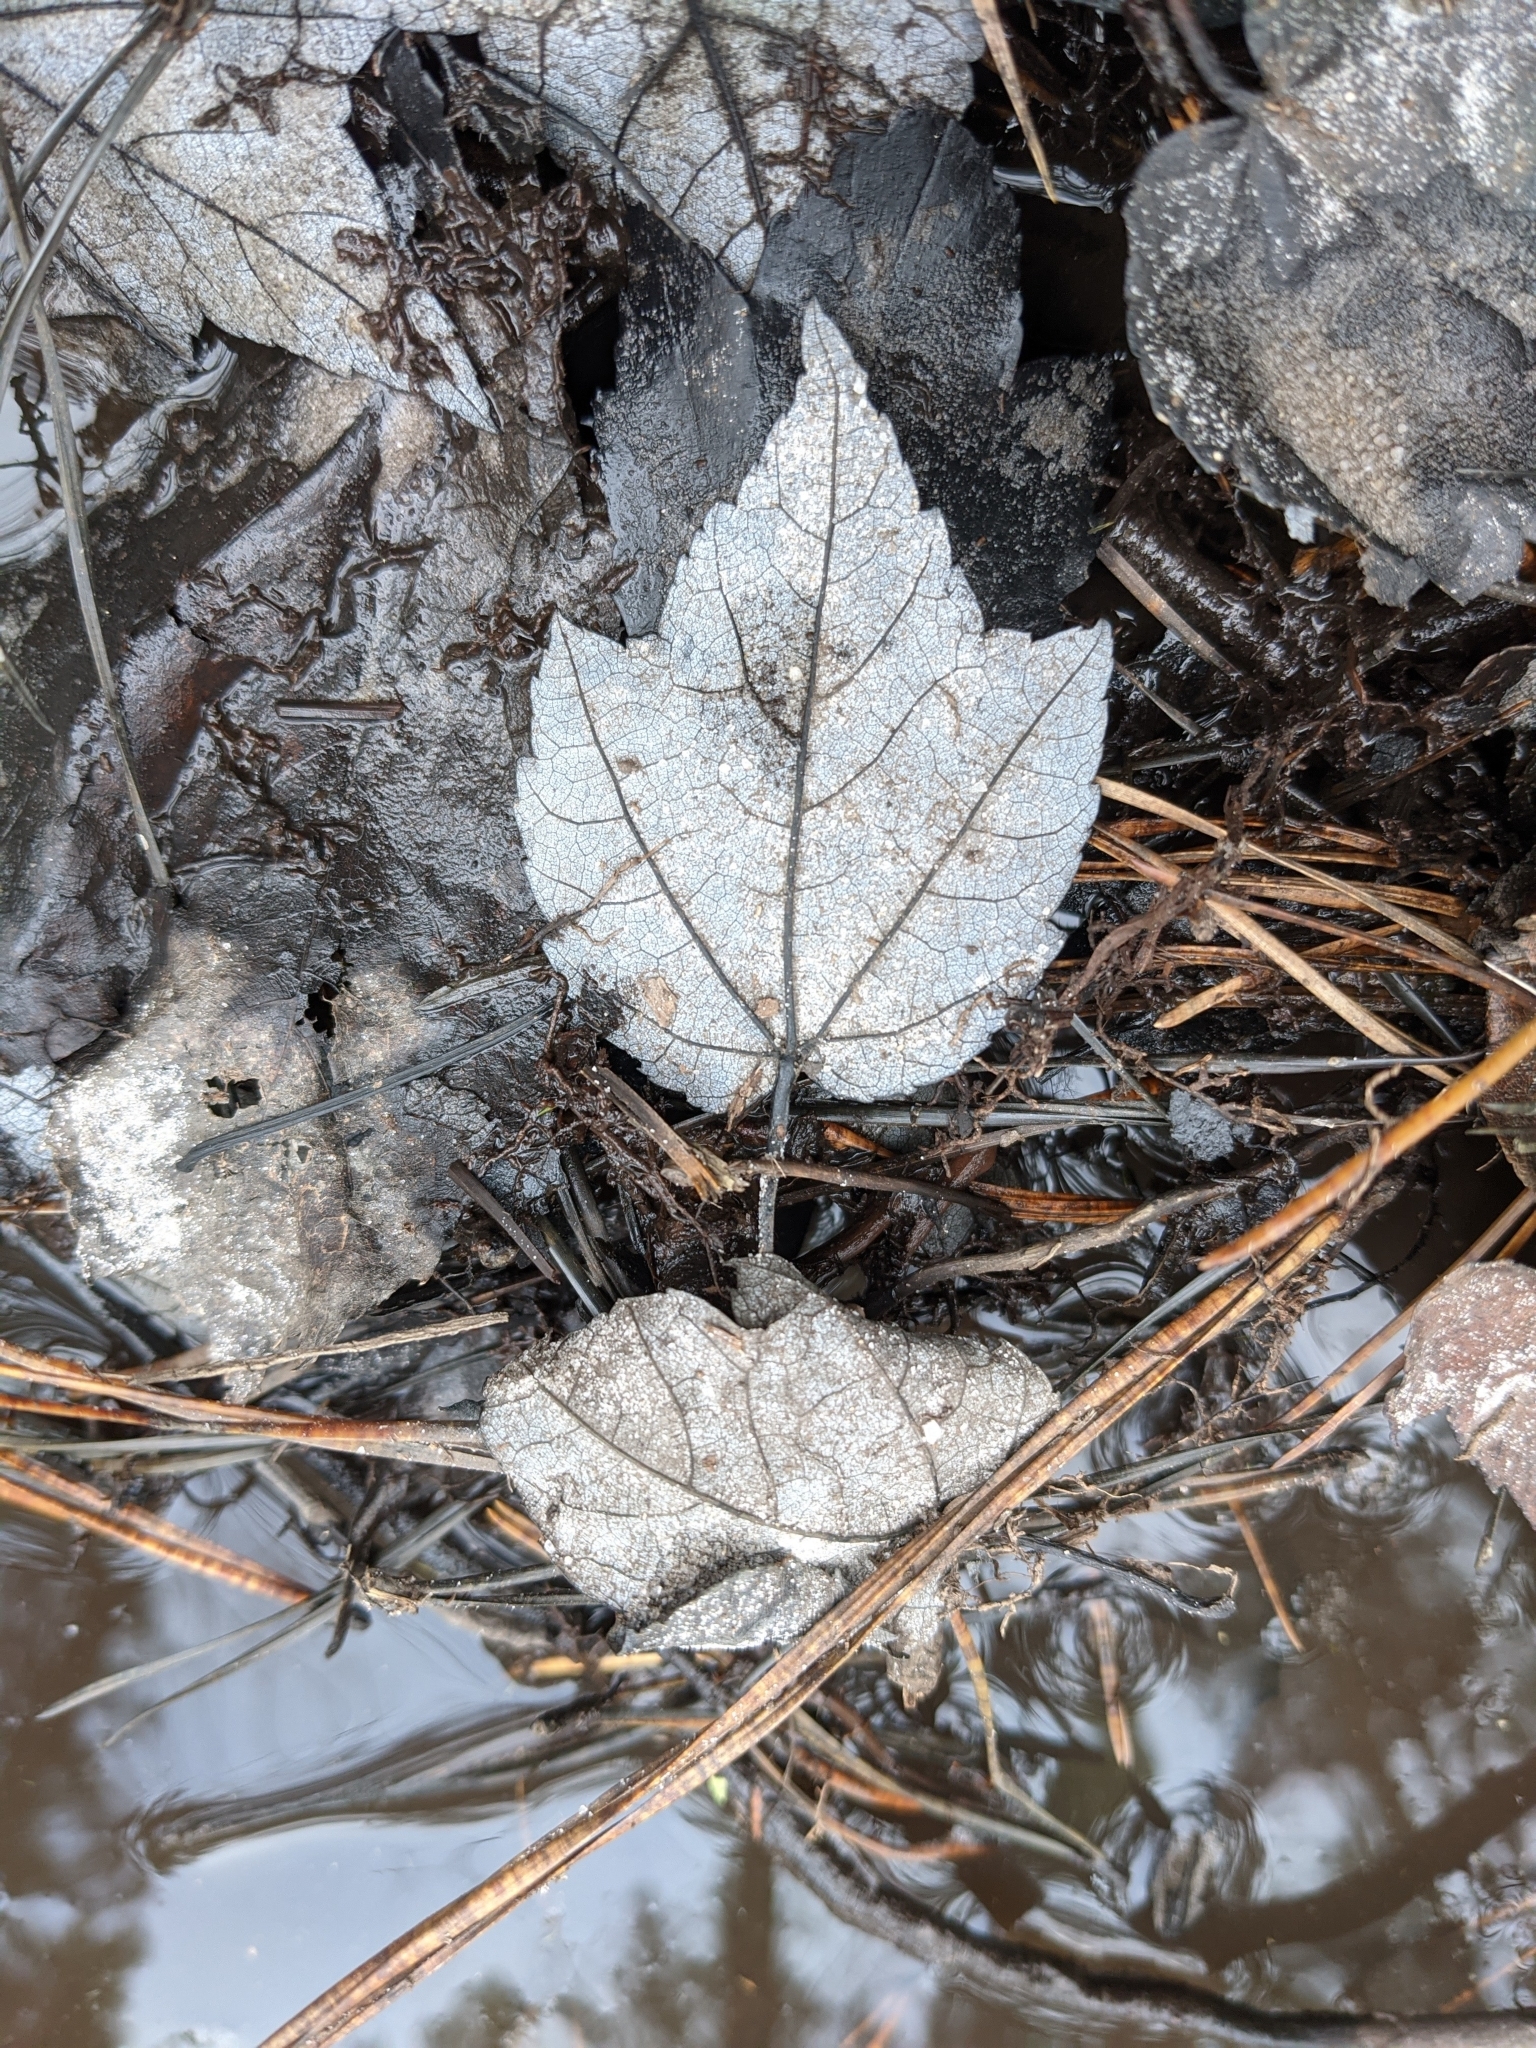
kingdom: Plantae
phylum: Tracheophyta
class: Magnoliopsida
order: Sapindales
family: Sapindaceae
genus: Acer
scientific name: Acer rubrum
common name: Red maple
